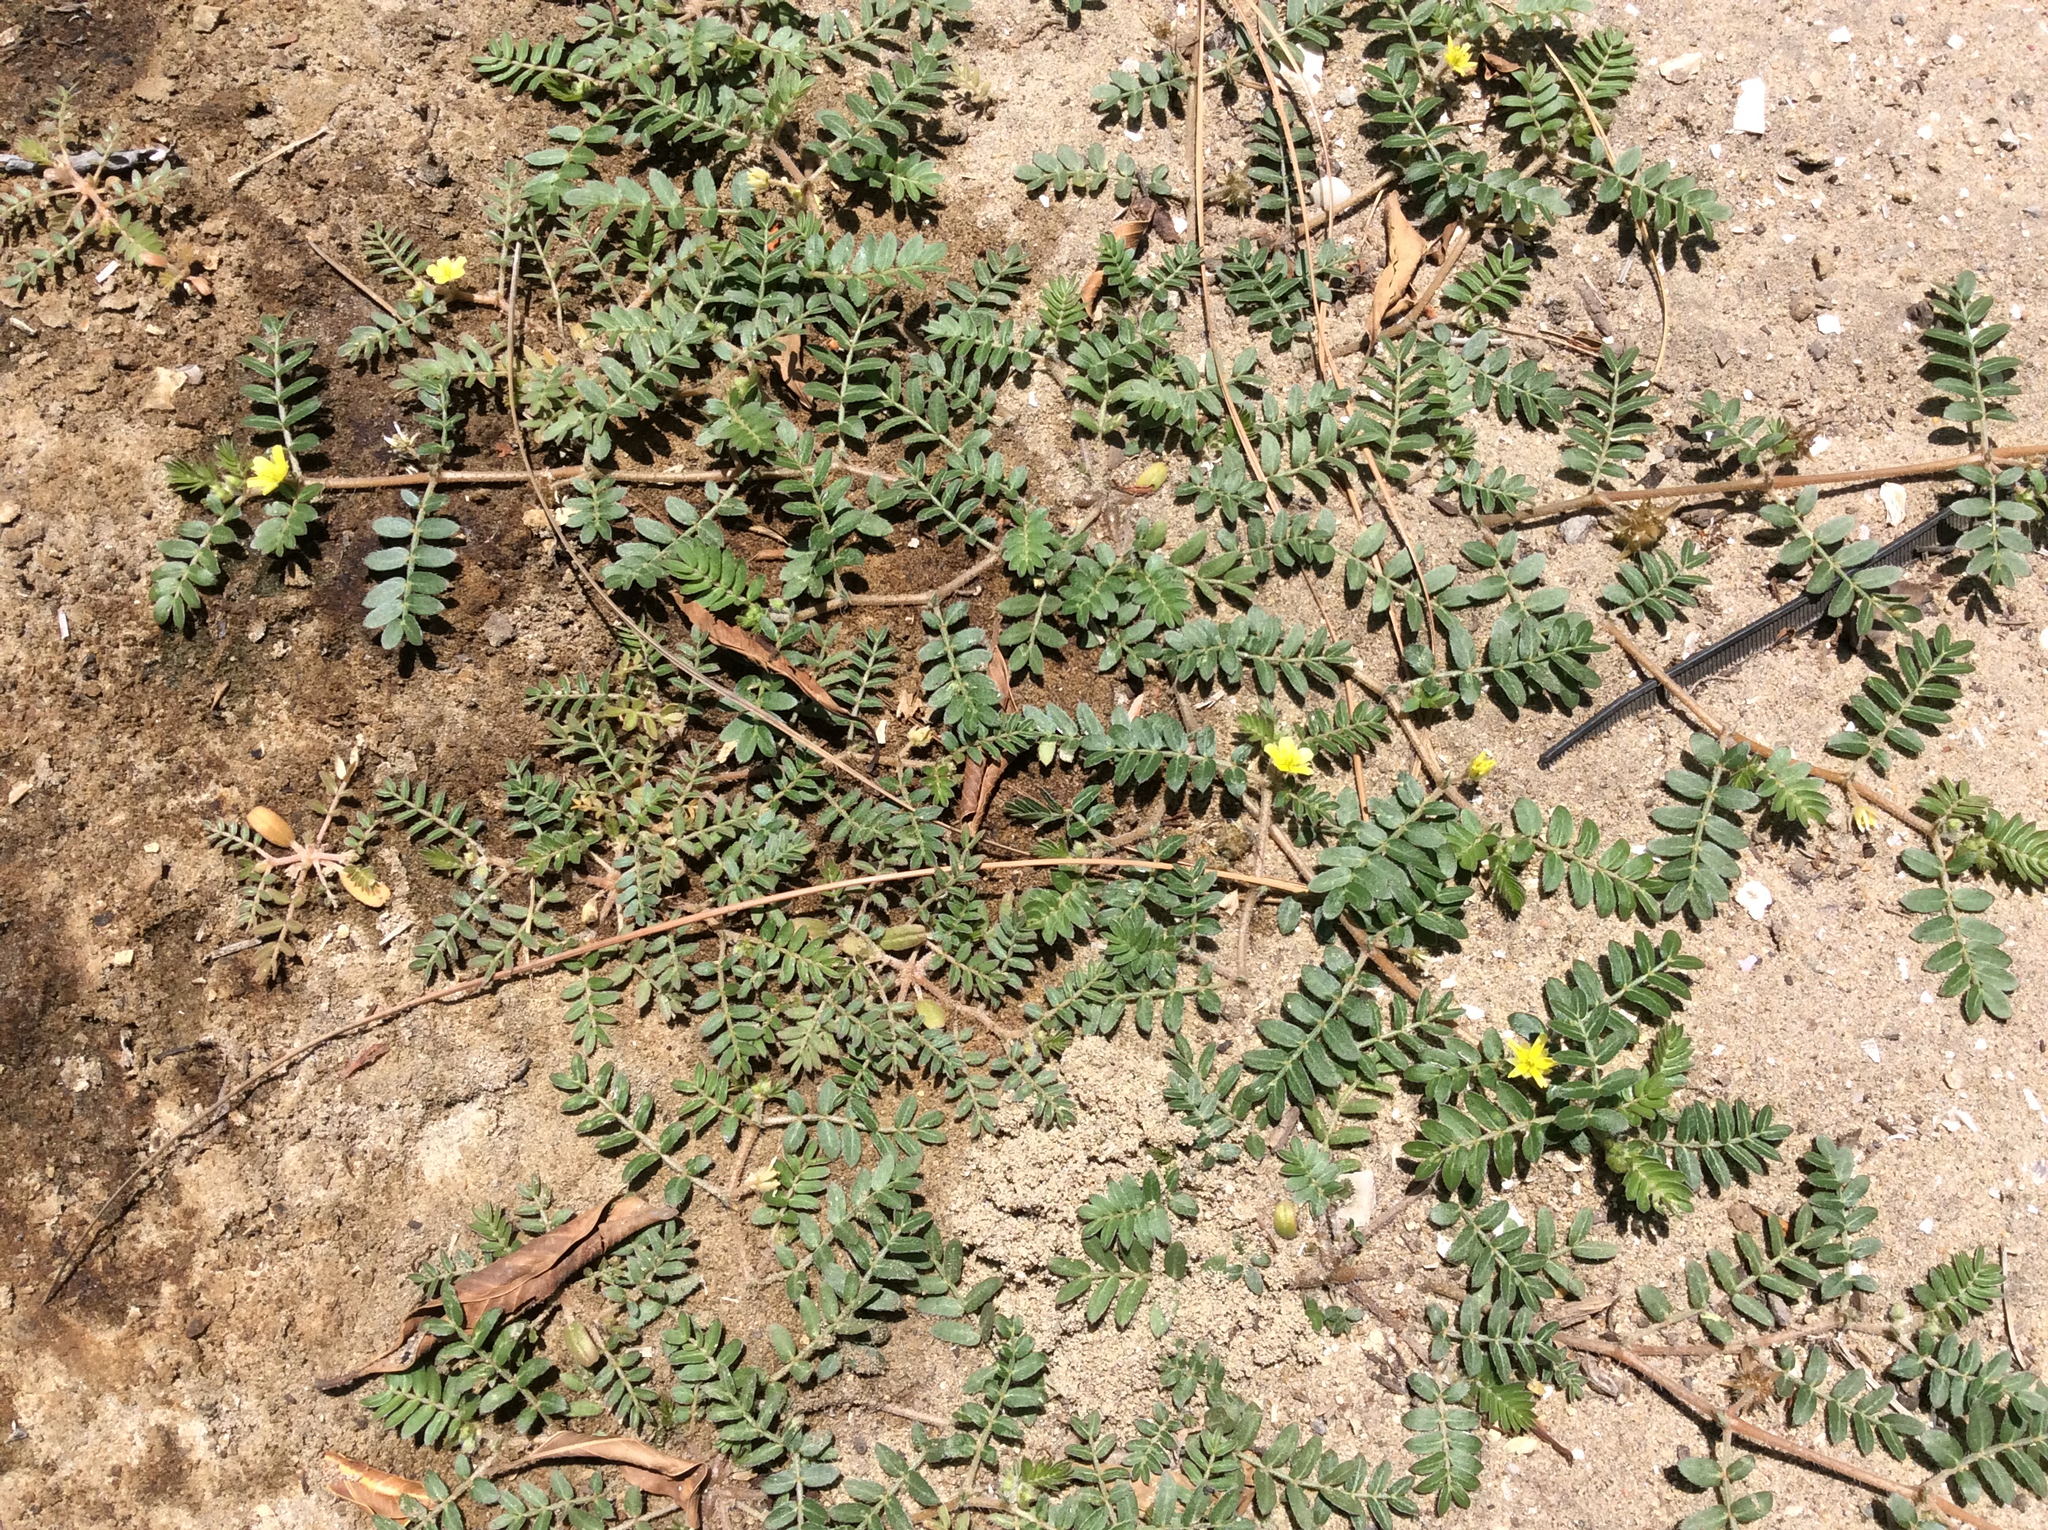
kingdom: Plantae
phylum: Tracheophyta
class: Magnoliopsida
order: Zygophyllales
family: Zygophyllaceae
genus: Tribulus
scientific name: Tribulus terrestris
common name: Puncturevine
